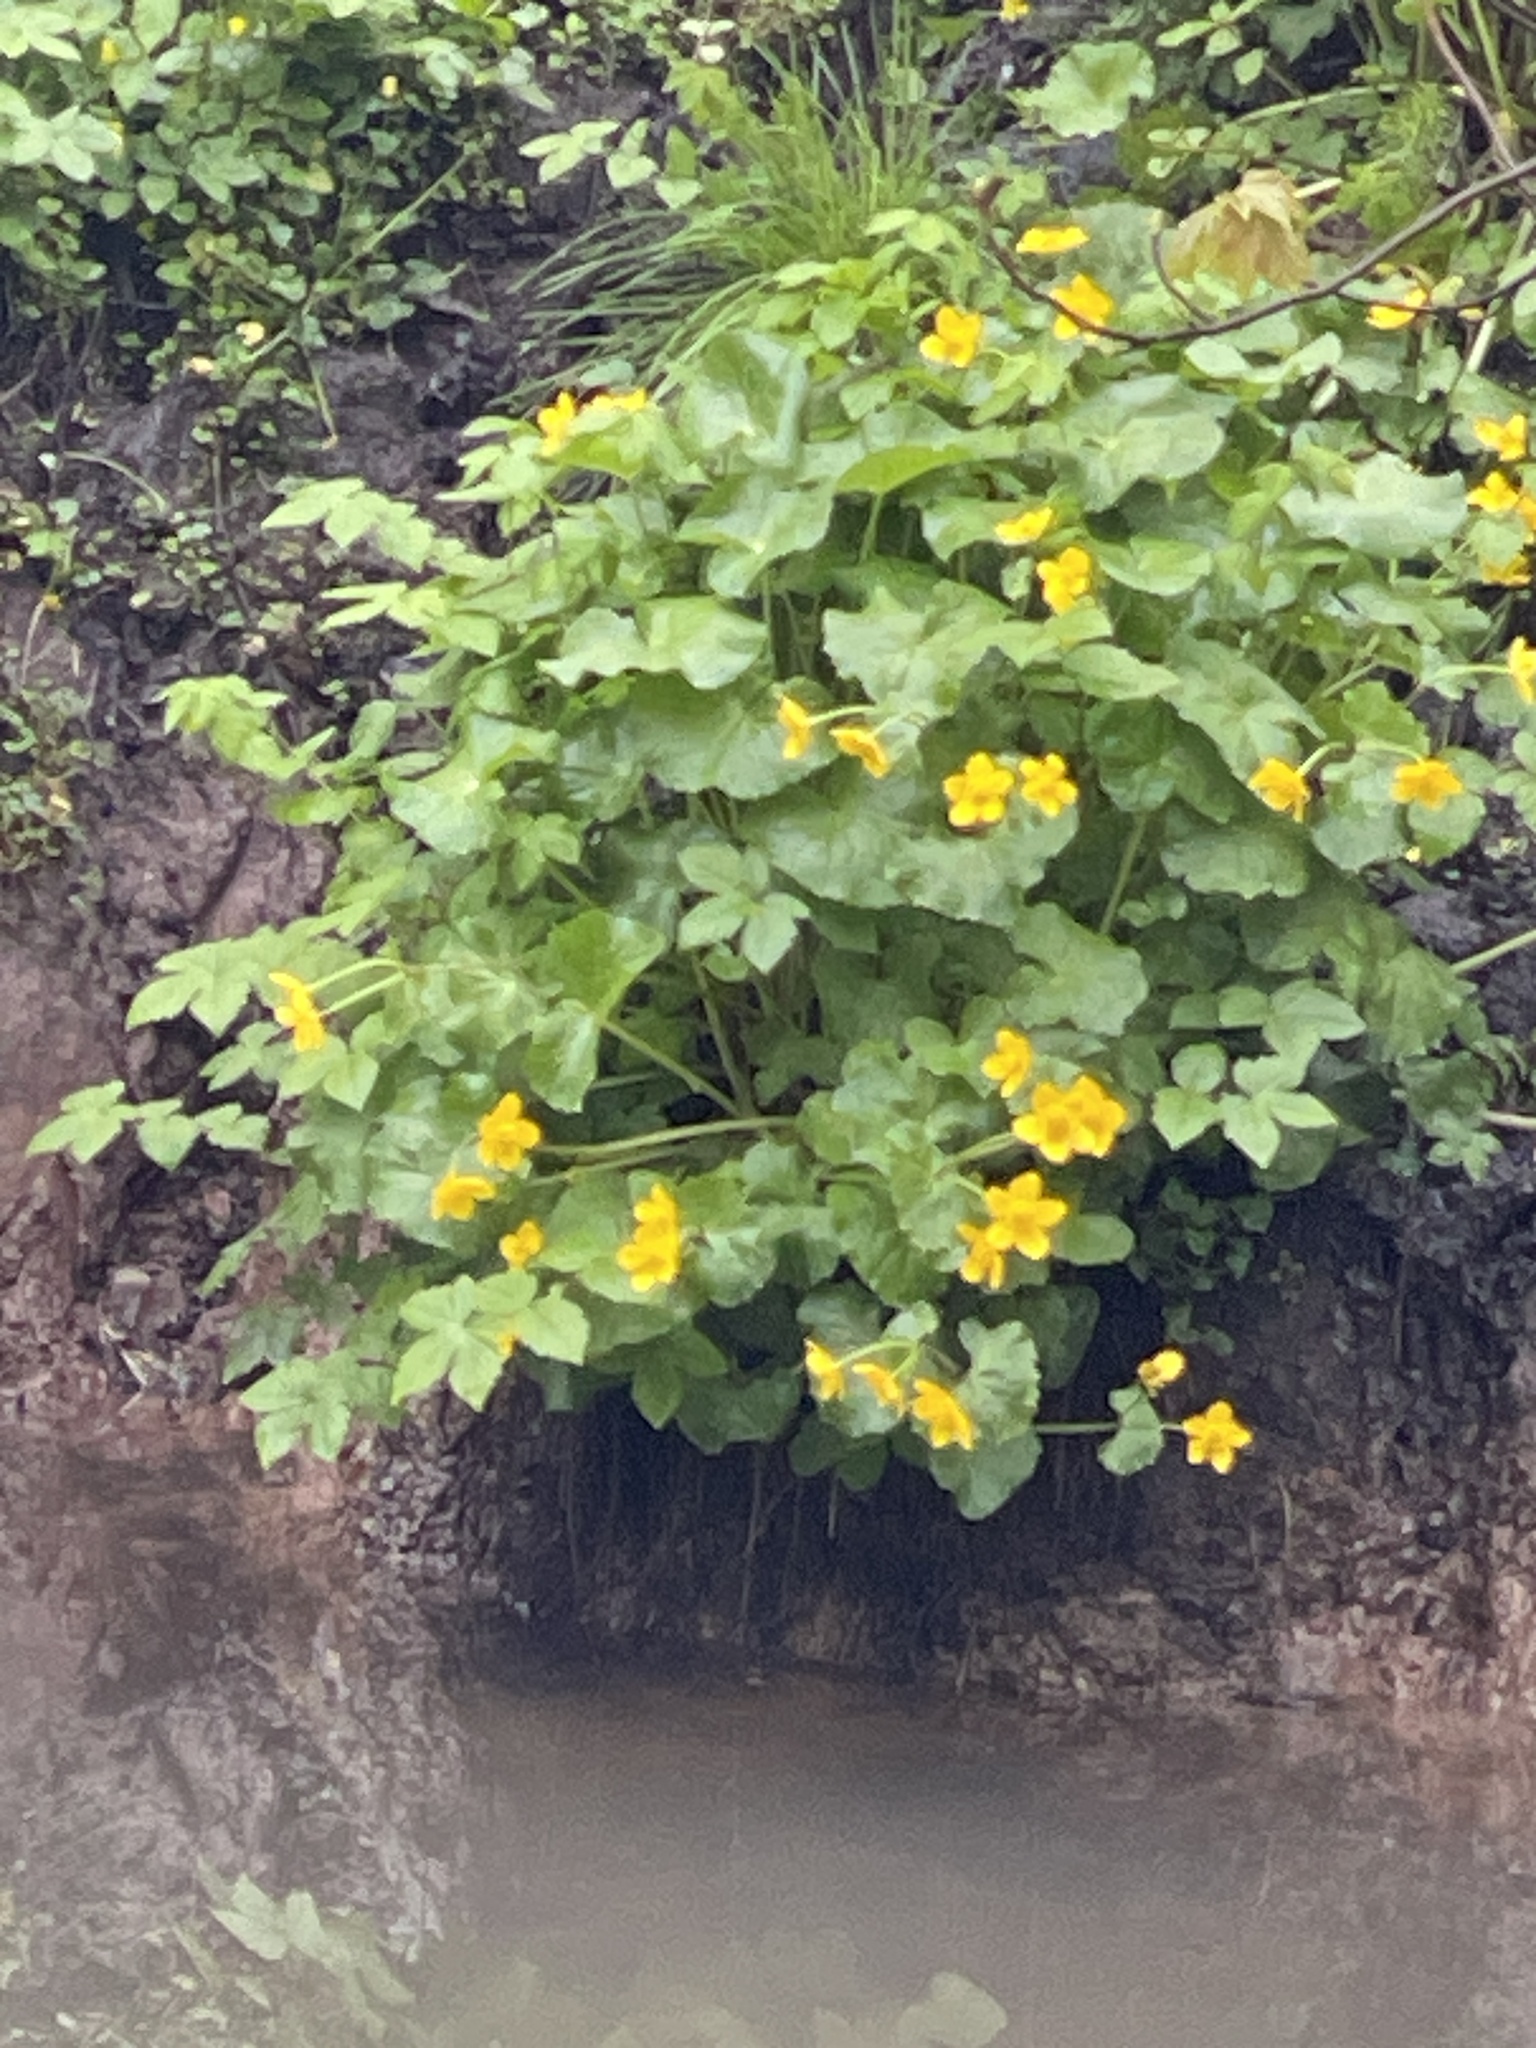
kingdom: Plantae
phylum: Tracheophyta
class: Magnoliopsida
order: Ranunculales
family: Ranunculaceae
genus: Caltha
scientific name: Caltha palustris
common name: Marsh marigold
